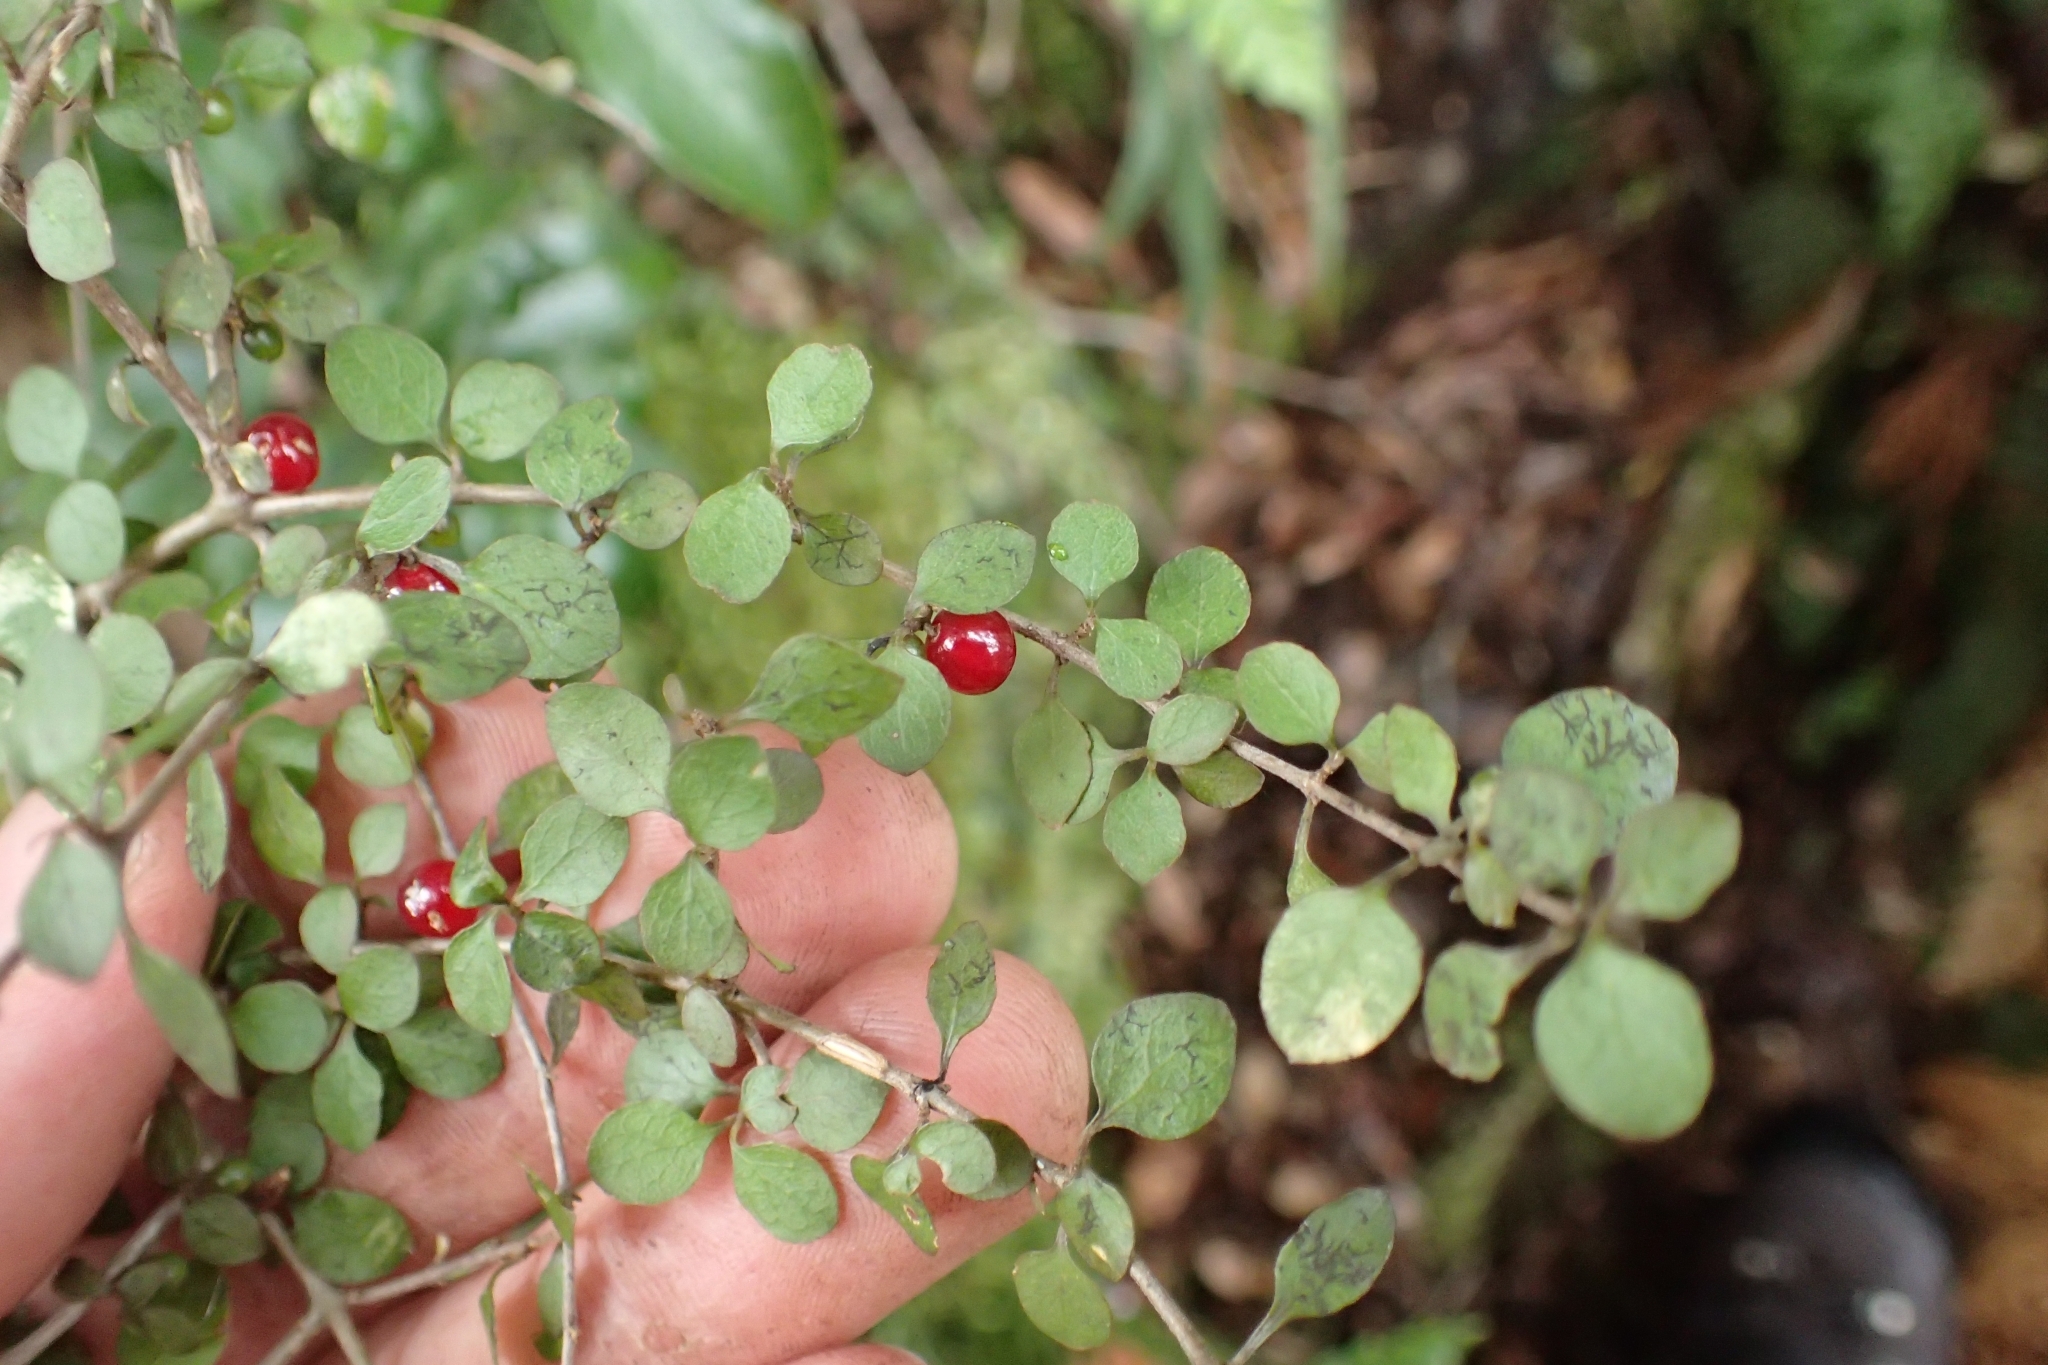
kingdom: Plantae
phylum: Tracheophyta
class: Magnoliopsida
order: Gentianales
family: Rubiaceae
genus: Coprosma
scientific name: Coprosma rhamnoides
